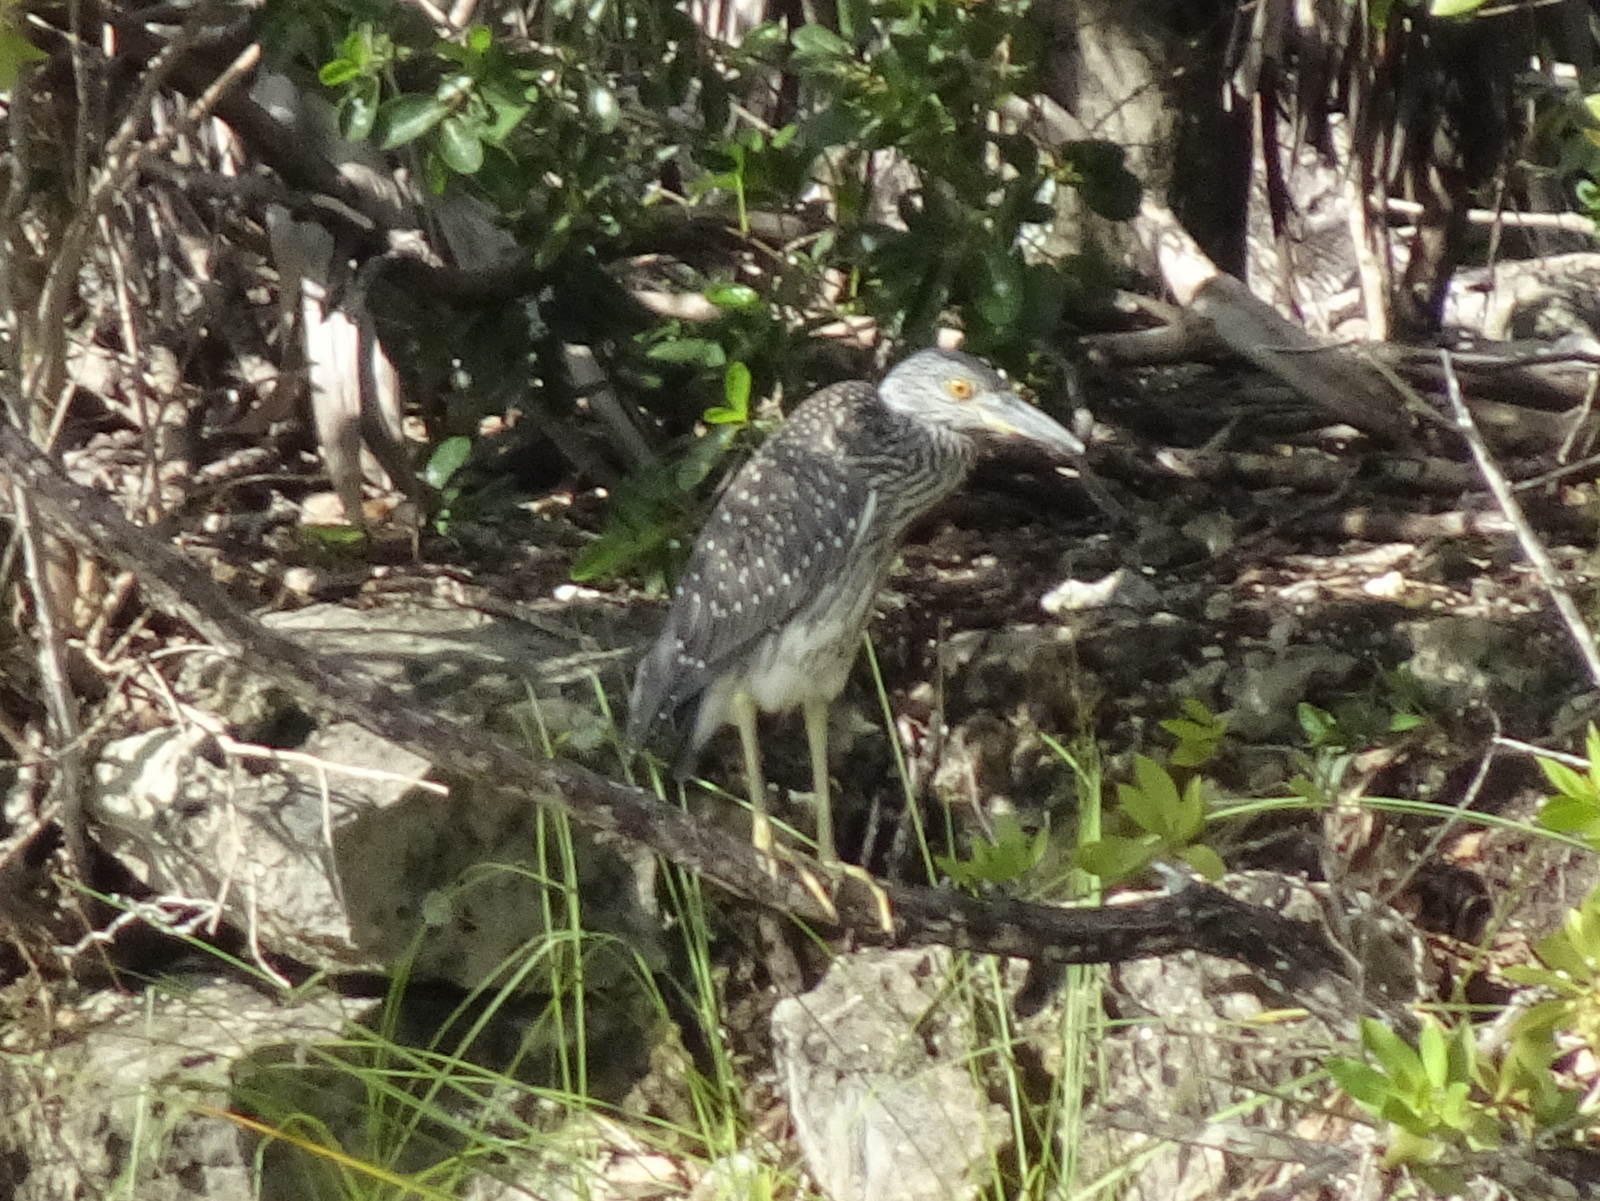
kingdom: Animalia
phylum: Chordata
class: Aves
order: Pelecaniformes
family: Ardeidae
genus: Nyctanassa
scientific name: Nyctanassa violacea
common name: Yellow-crowned night heron
